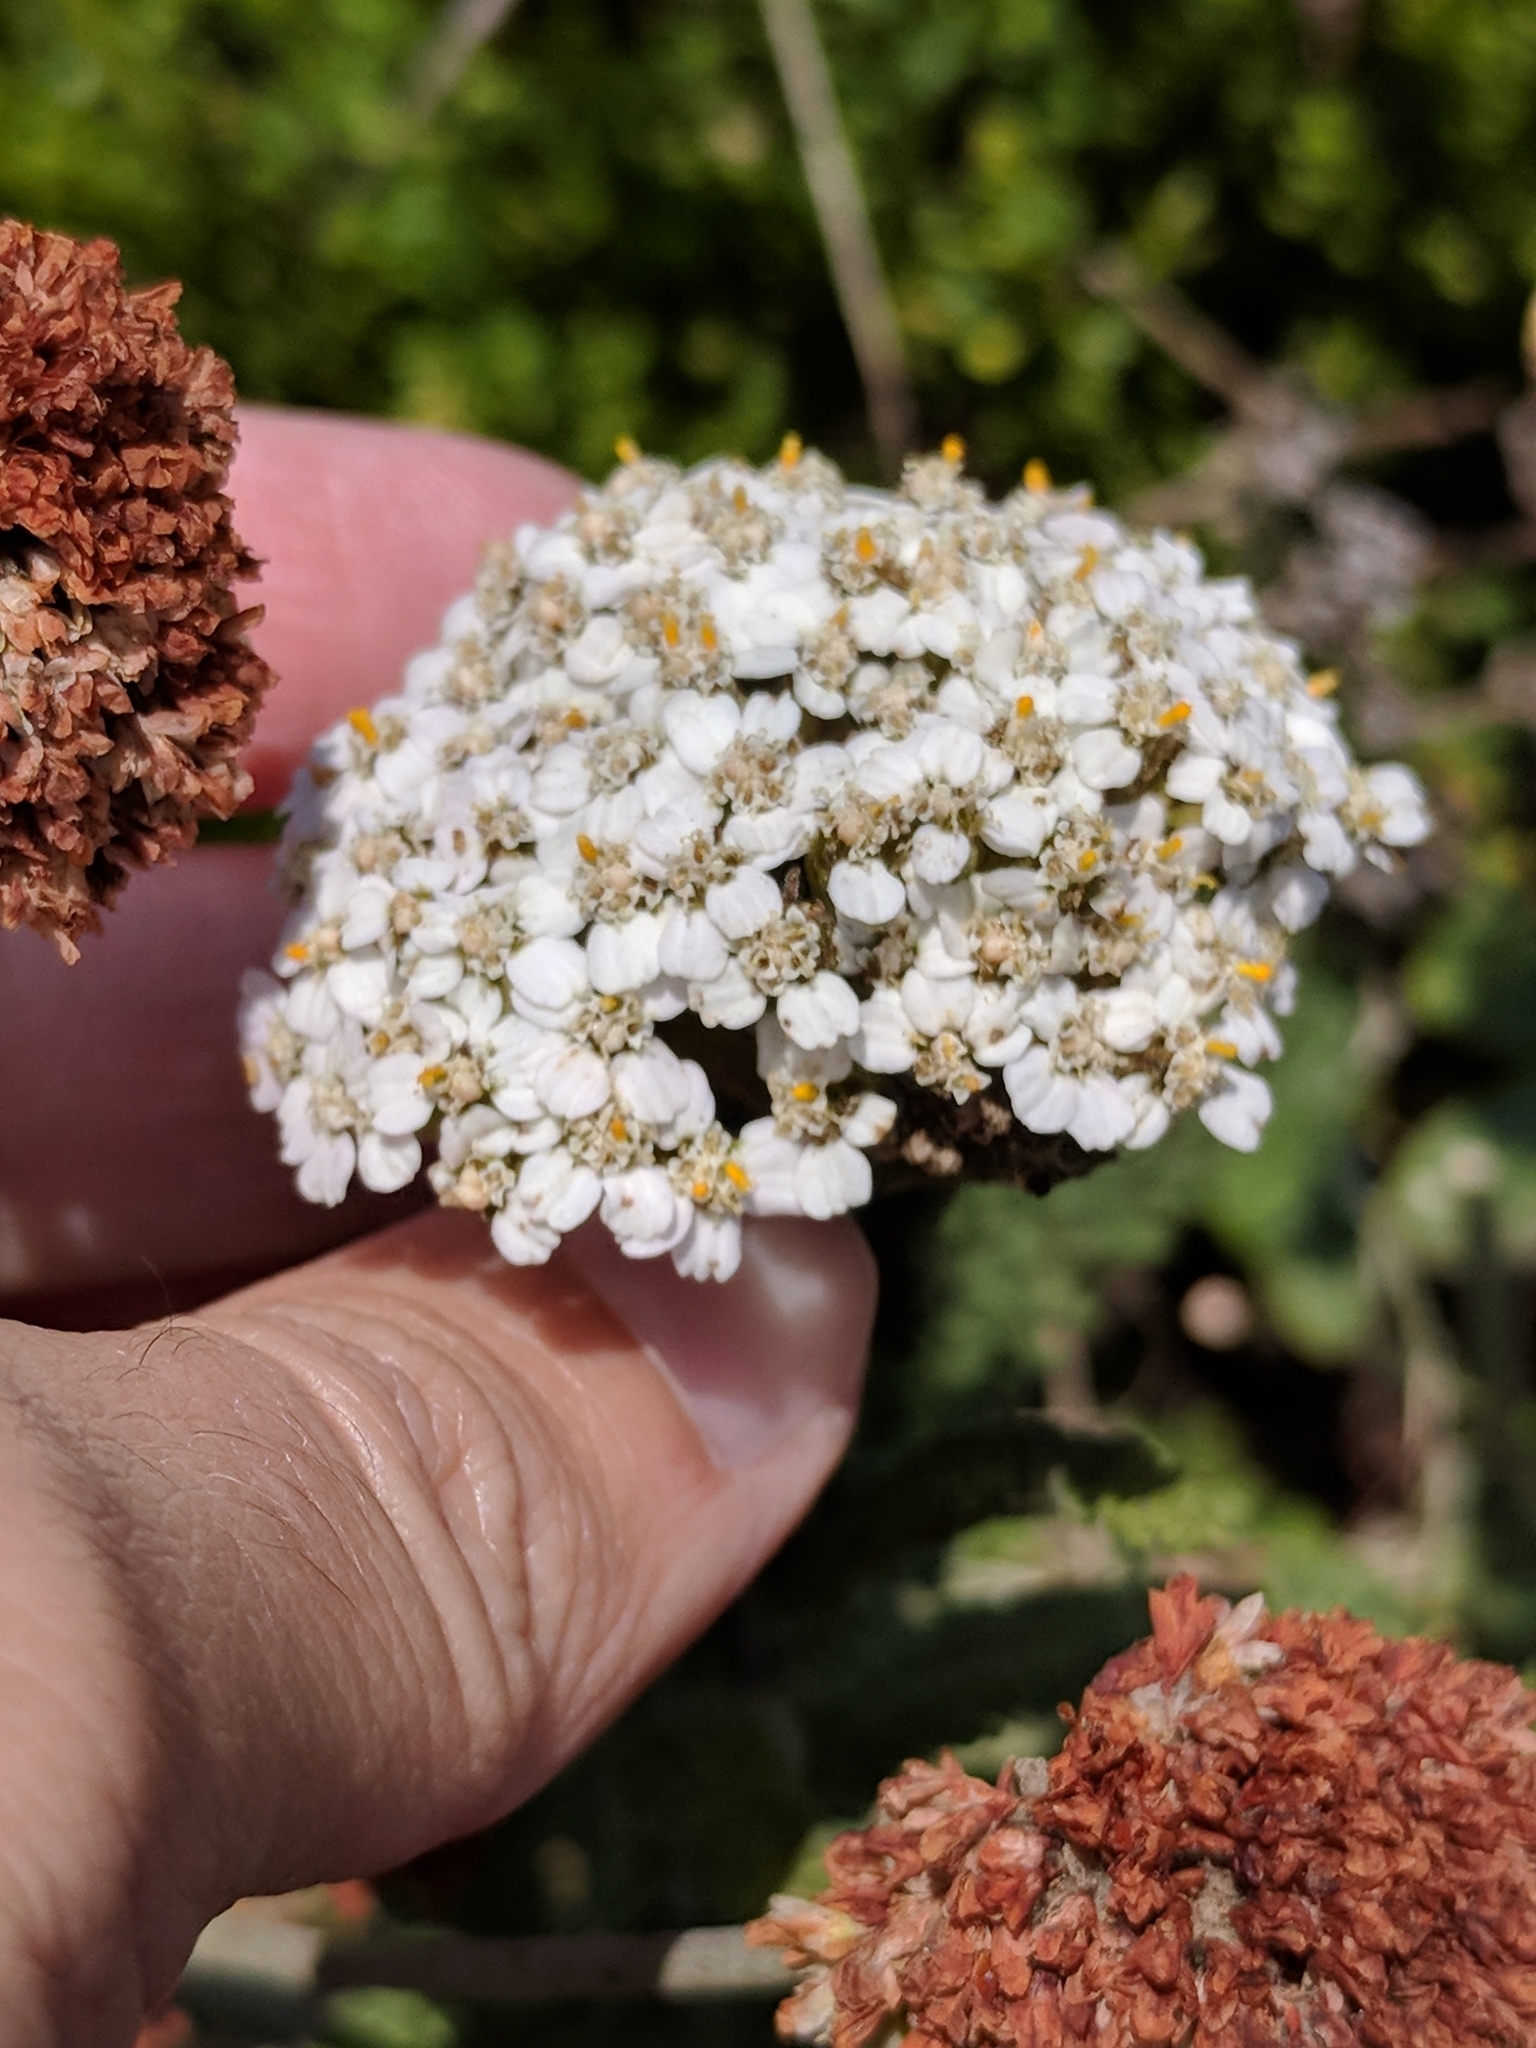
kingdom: Plantae
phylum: Tracheophyta
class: Magnoliopsida
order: Asterales
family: Asteraceae
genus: Achillea
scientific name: Achillea millefolium
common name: Yarrow
